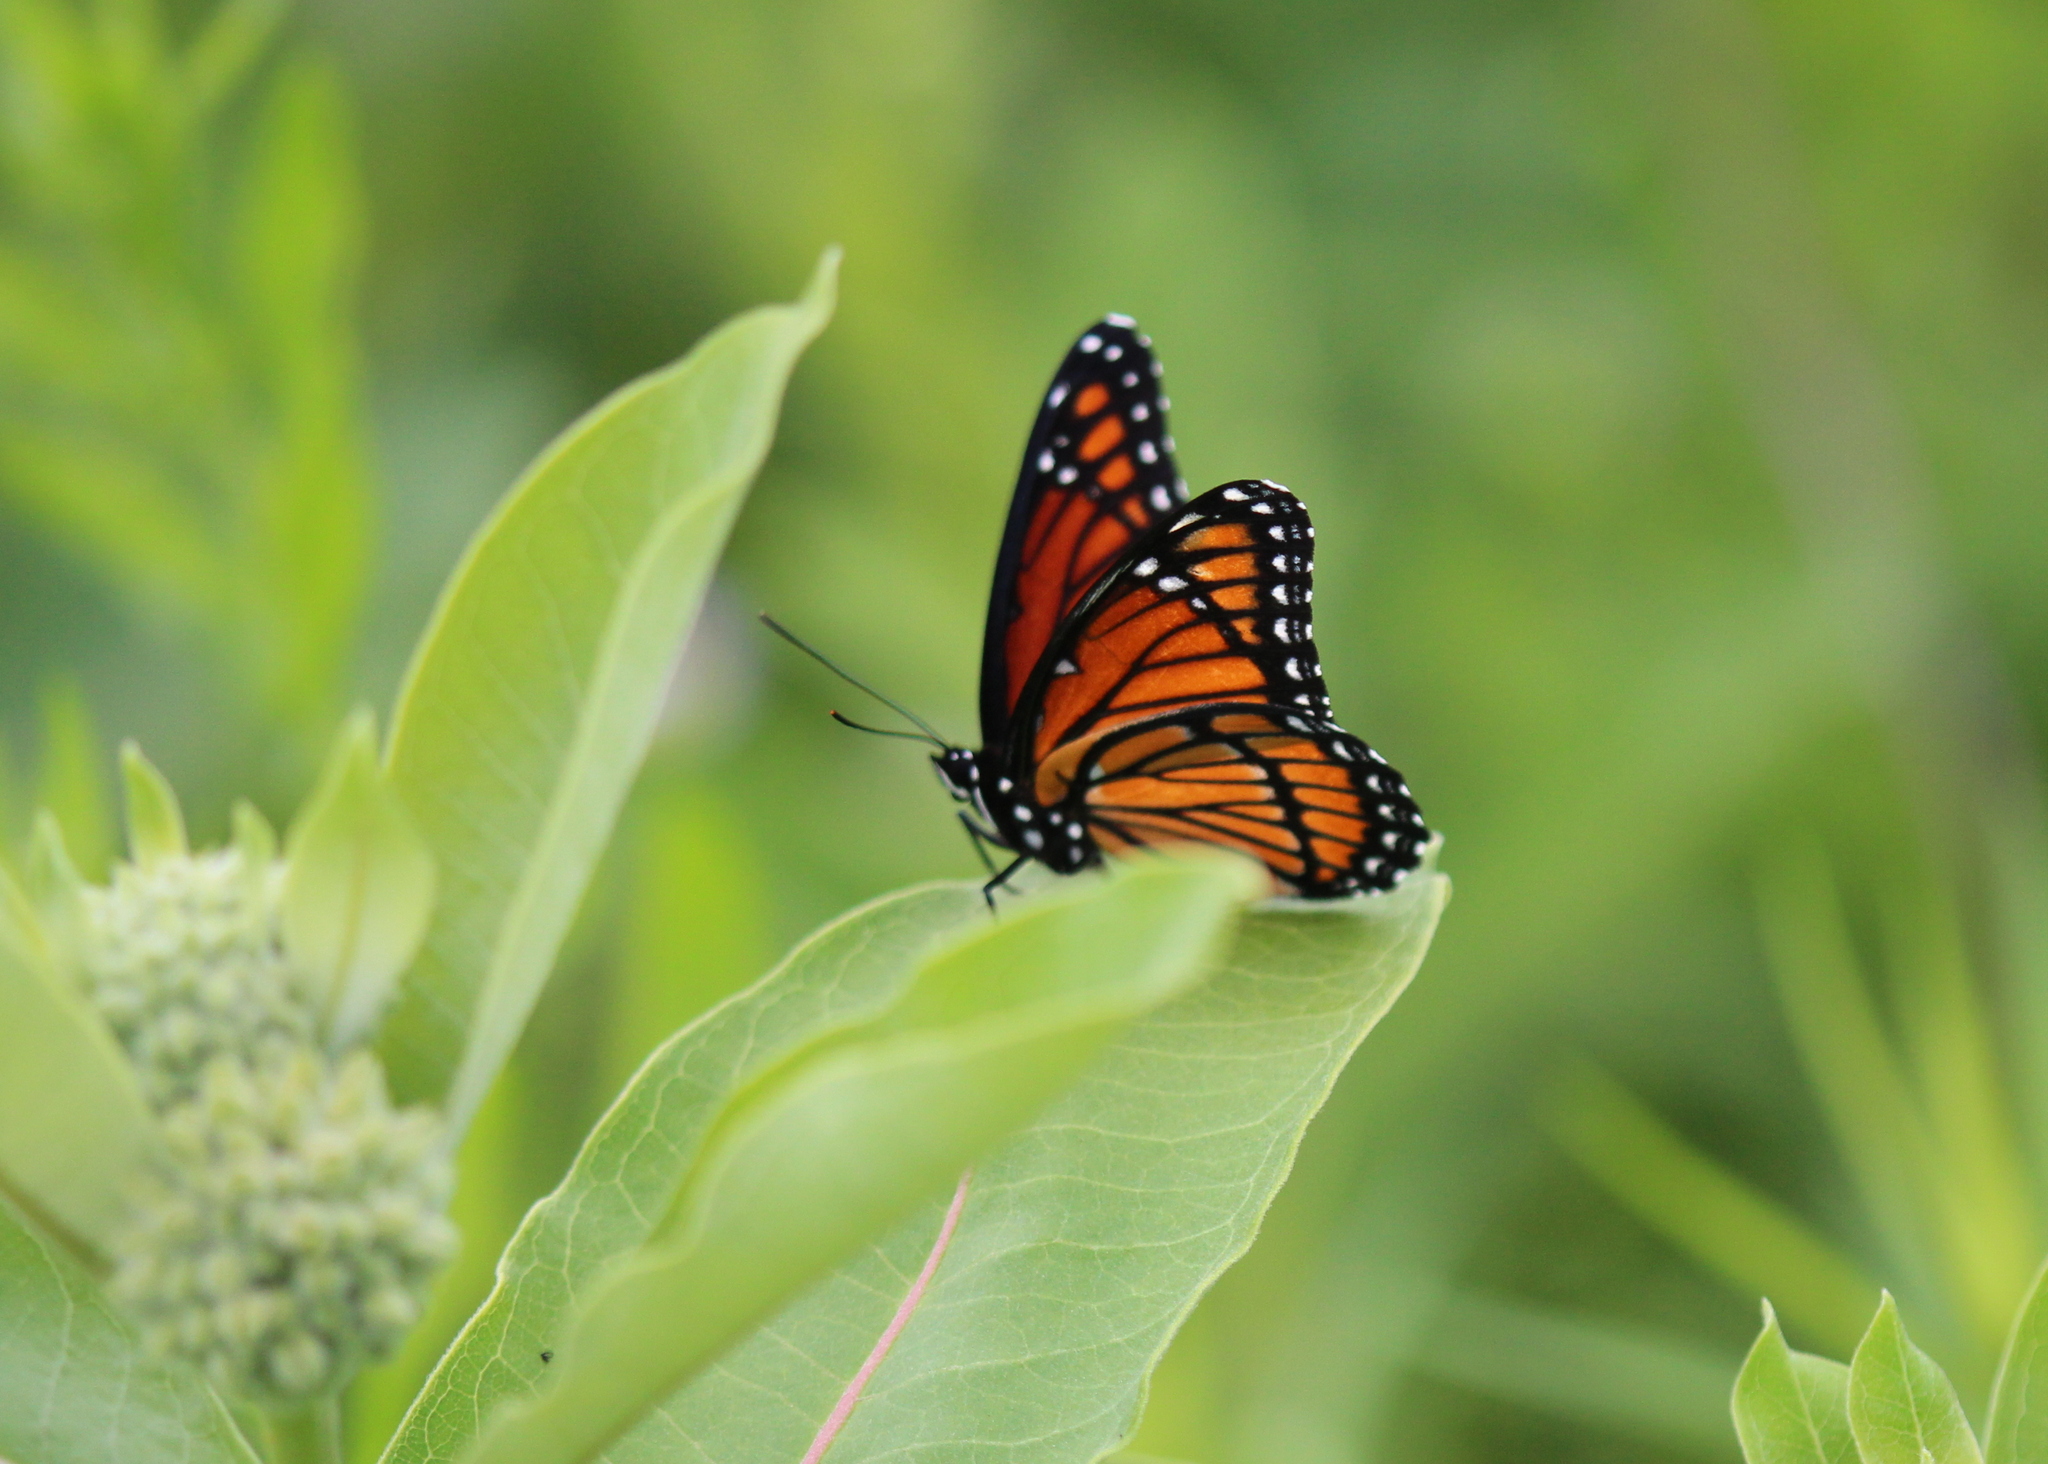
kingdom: Animalia
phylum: Arthropoda
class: Insecta
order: Lepidoptera
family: Nymphalidae
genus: Limenitis
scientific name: Limenitis archippus
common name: Viceroy
